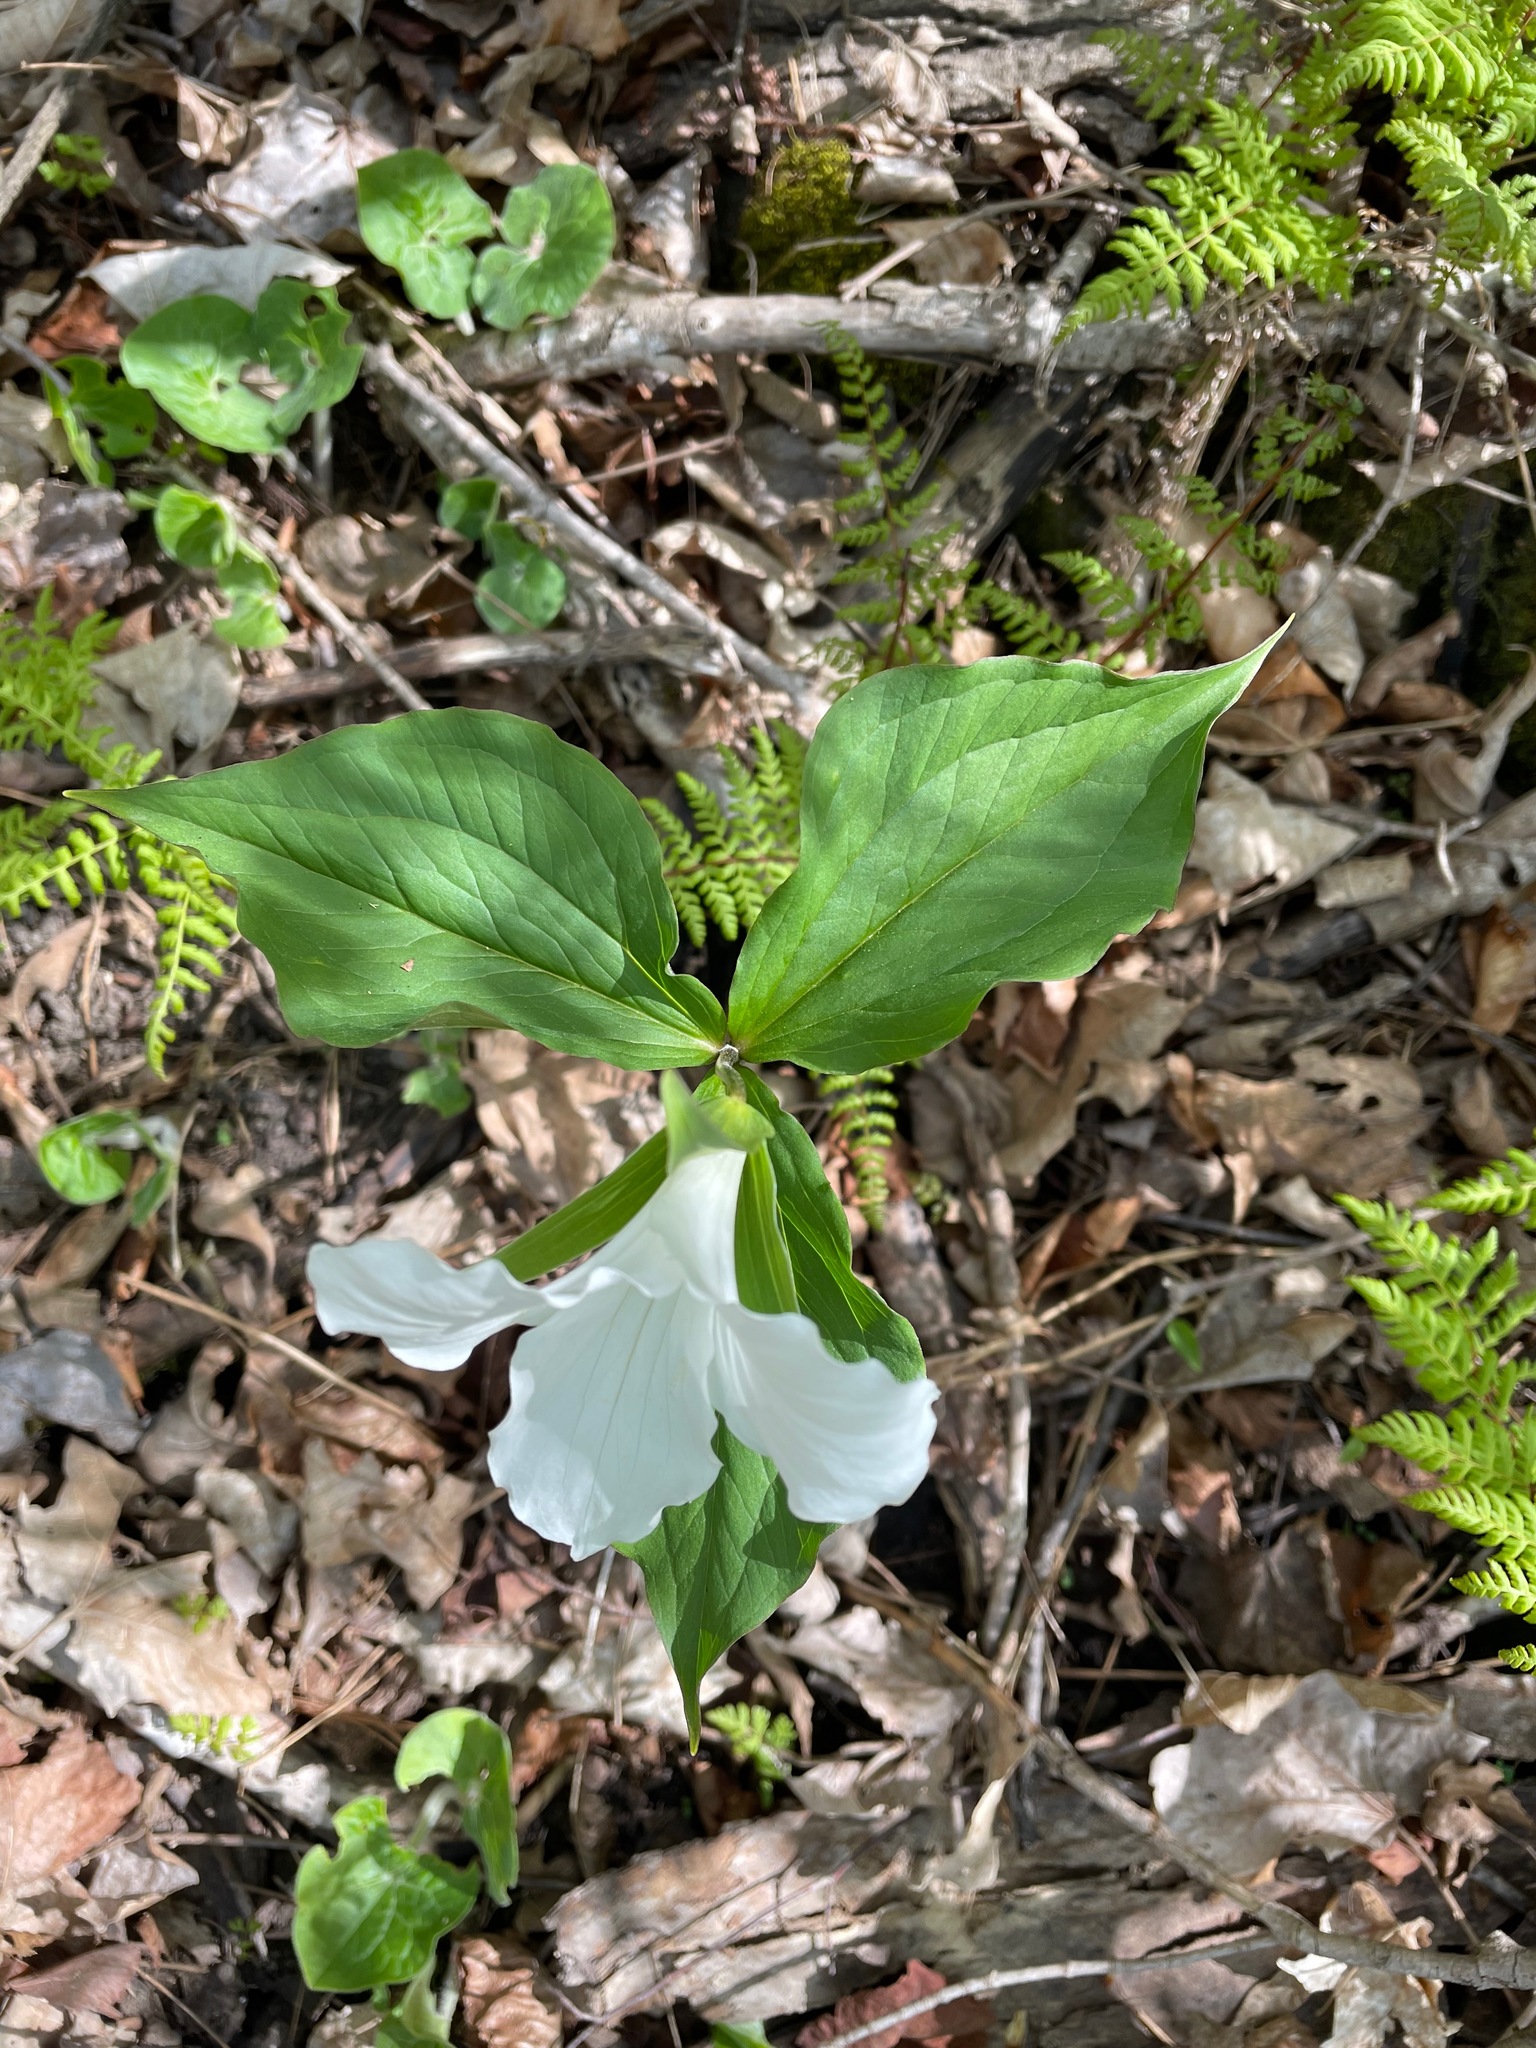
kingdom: Plantae
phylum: Tracheophyta
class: Liliopsida
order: Liliales
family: Melanthiaceae
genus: Trillium
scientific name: Trillium grandiflorum
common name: Great white trillium
